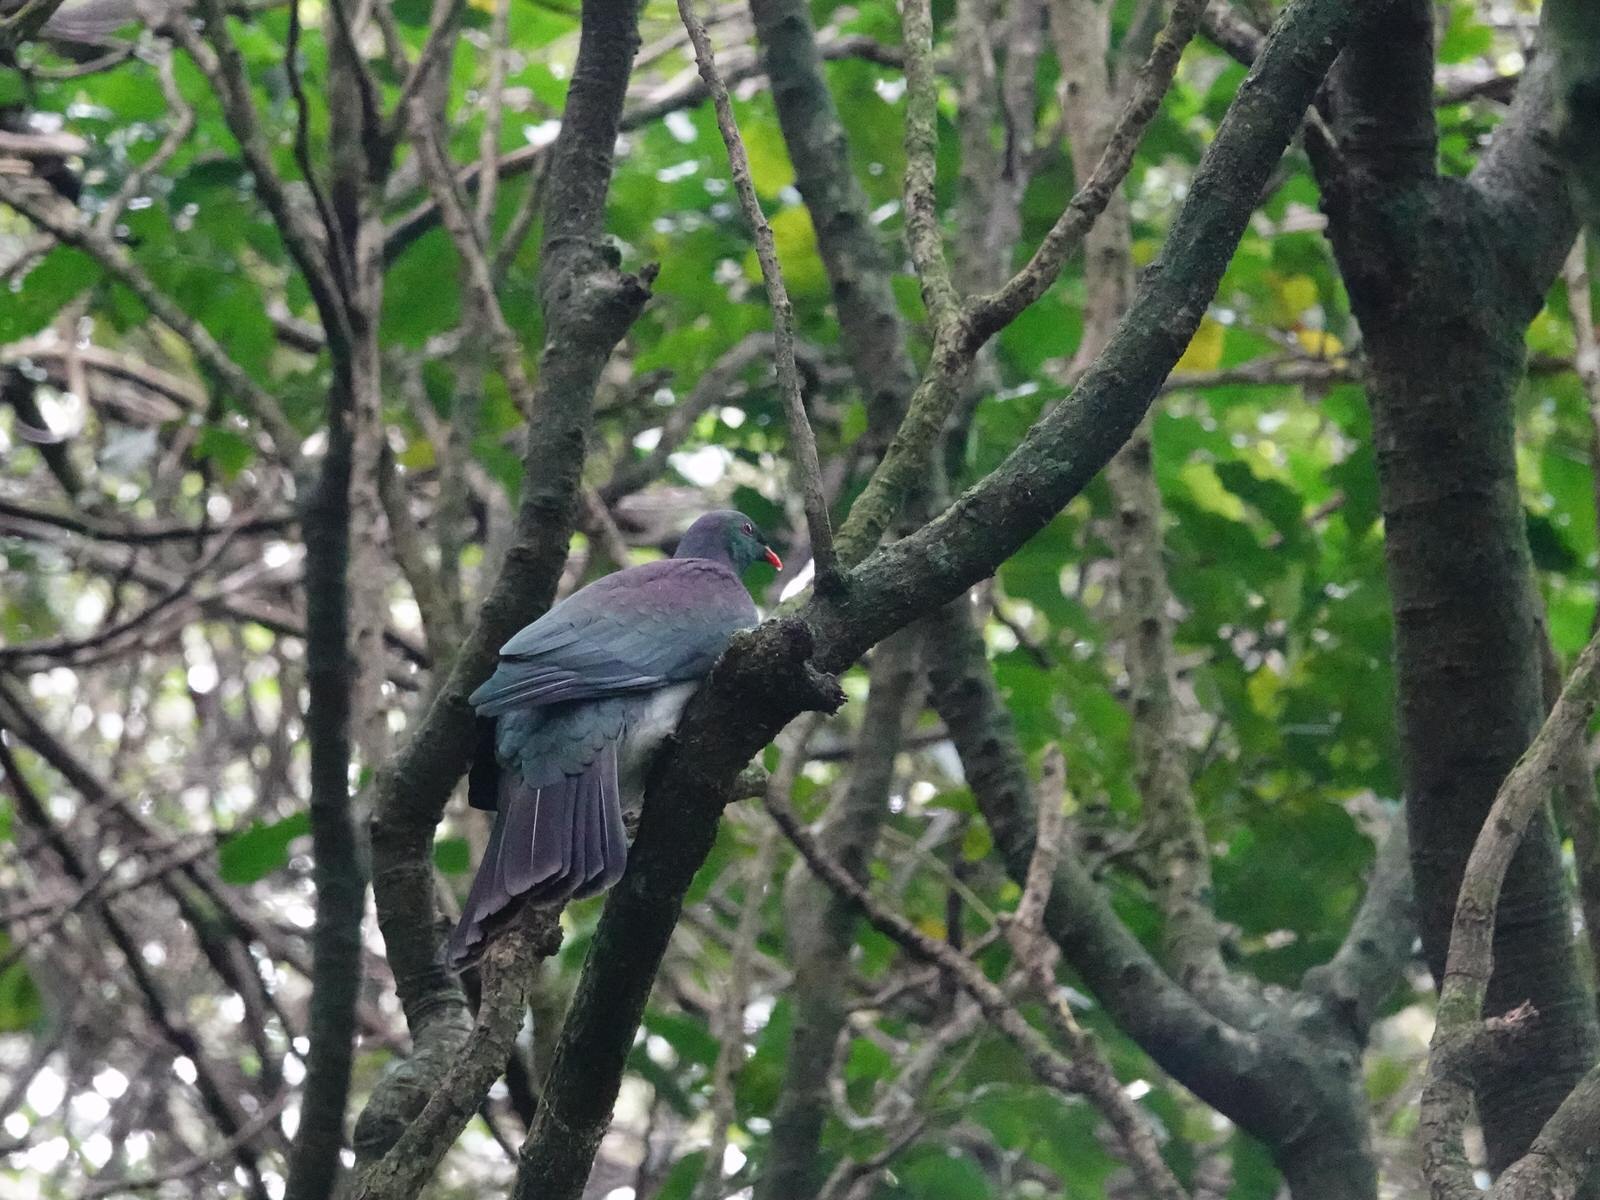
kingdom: Animalia
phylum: Chordata
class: Aves
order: Columbiformes
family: Columbidae
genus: Hemiphaga
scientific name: Hemiphaga novaeseelandiae
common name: New zealand pigeon
